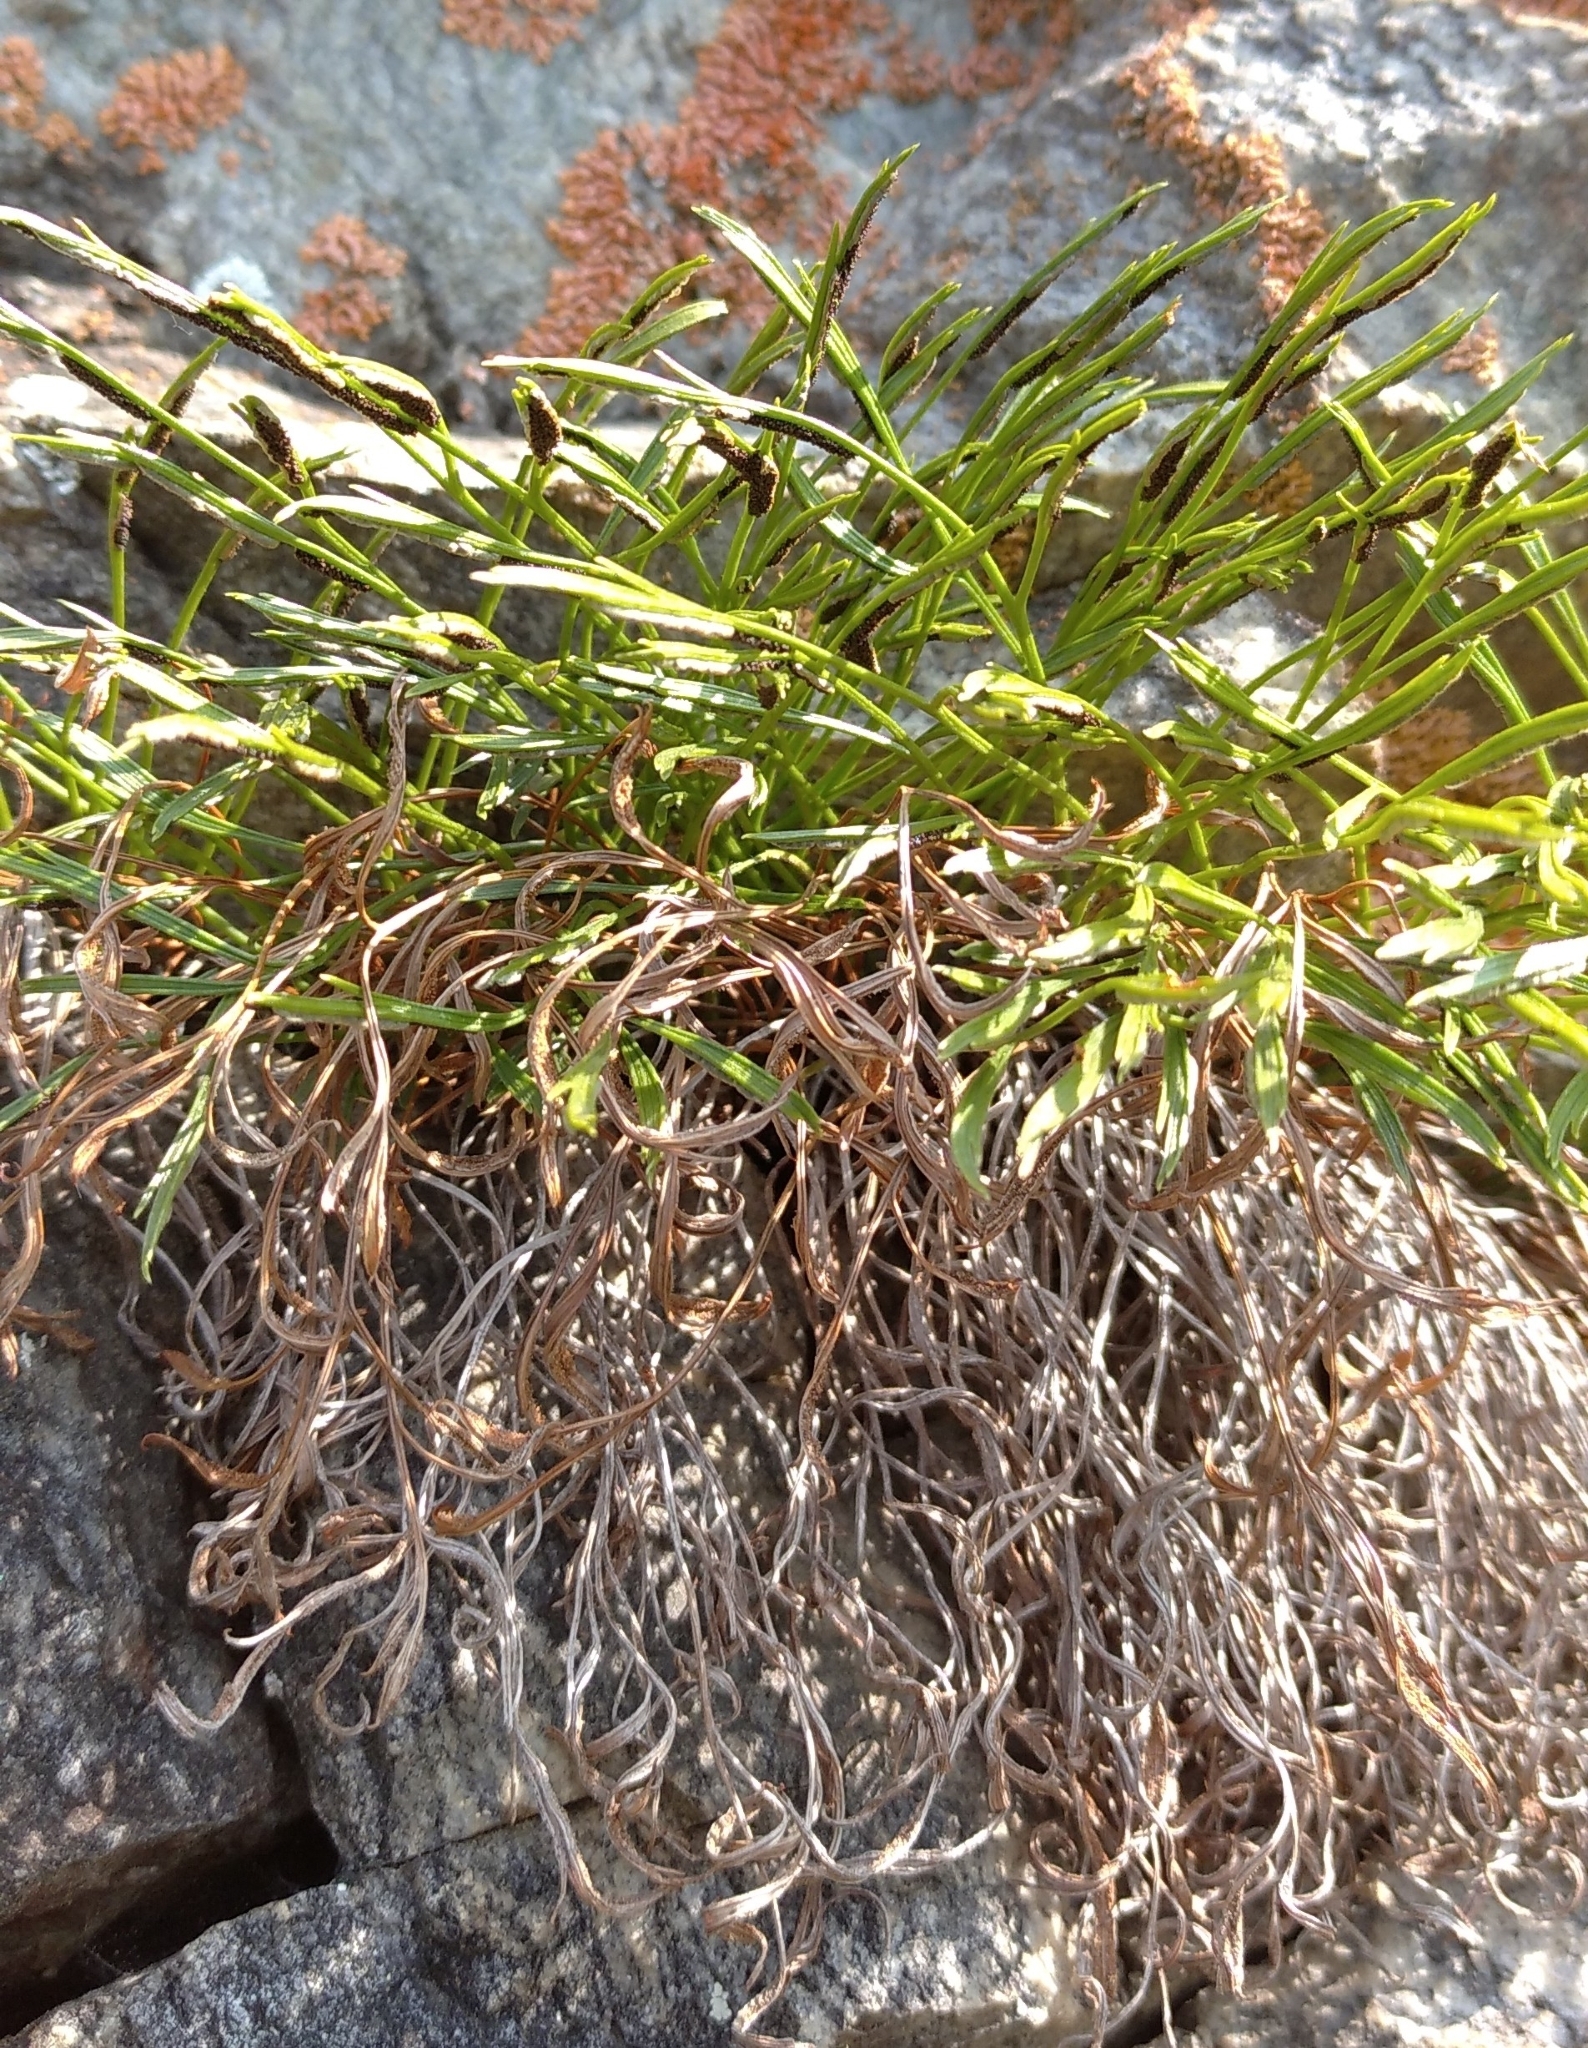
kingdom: Plantae
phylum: Tracheophyta
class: Polypodiopsida
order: Polypodiales
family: Aspleniaceae
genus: Asplenium
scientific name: Asplenium septentrionale
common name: Forked spleenwort
